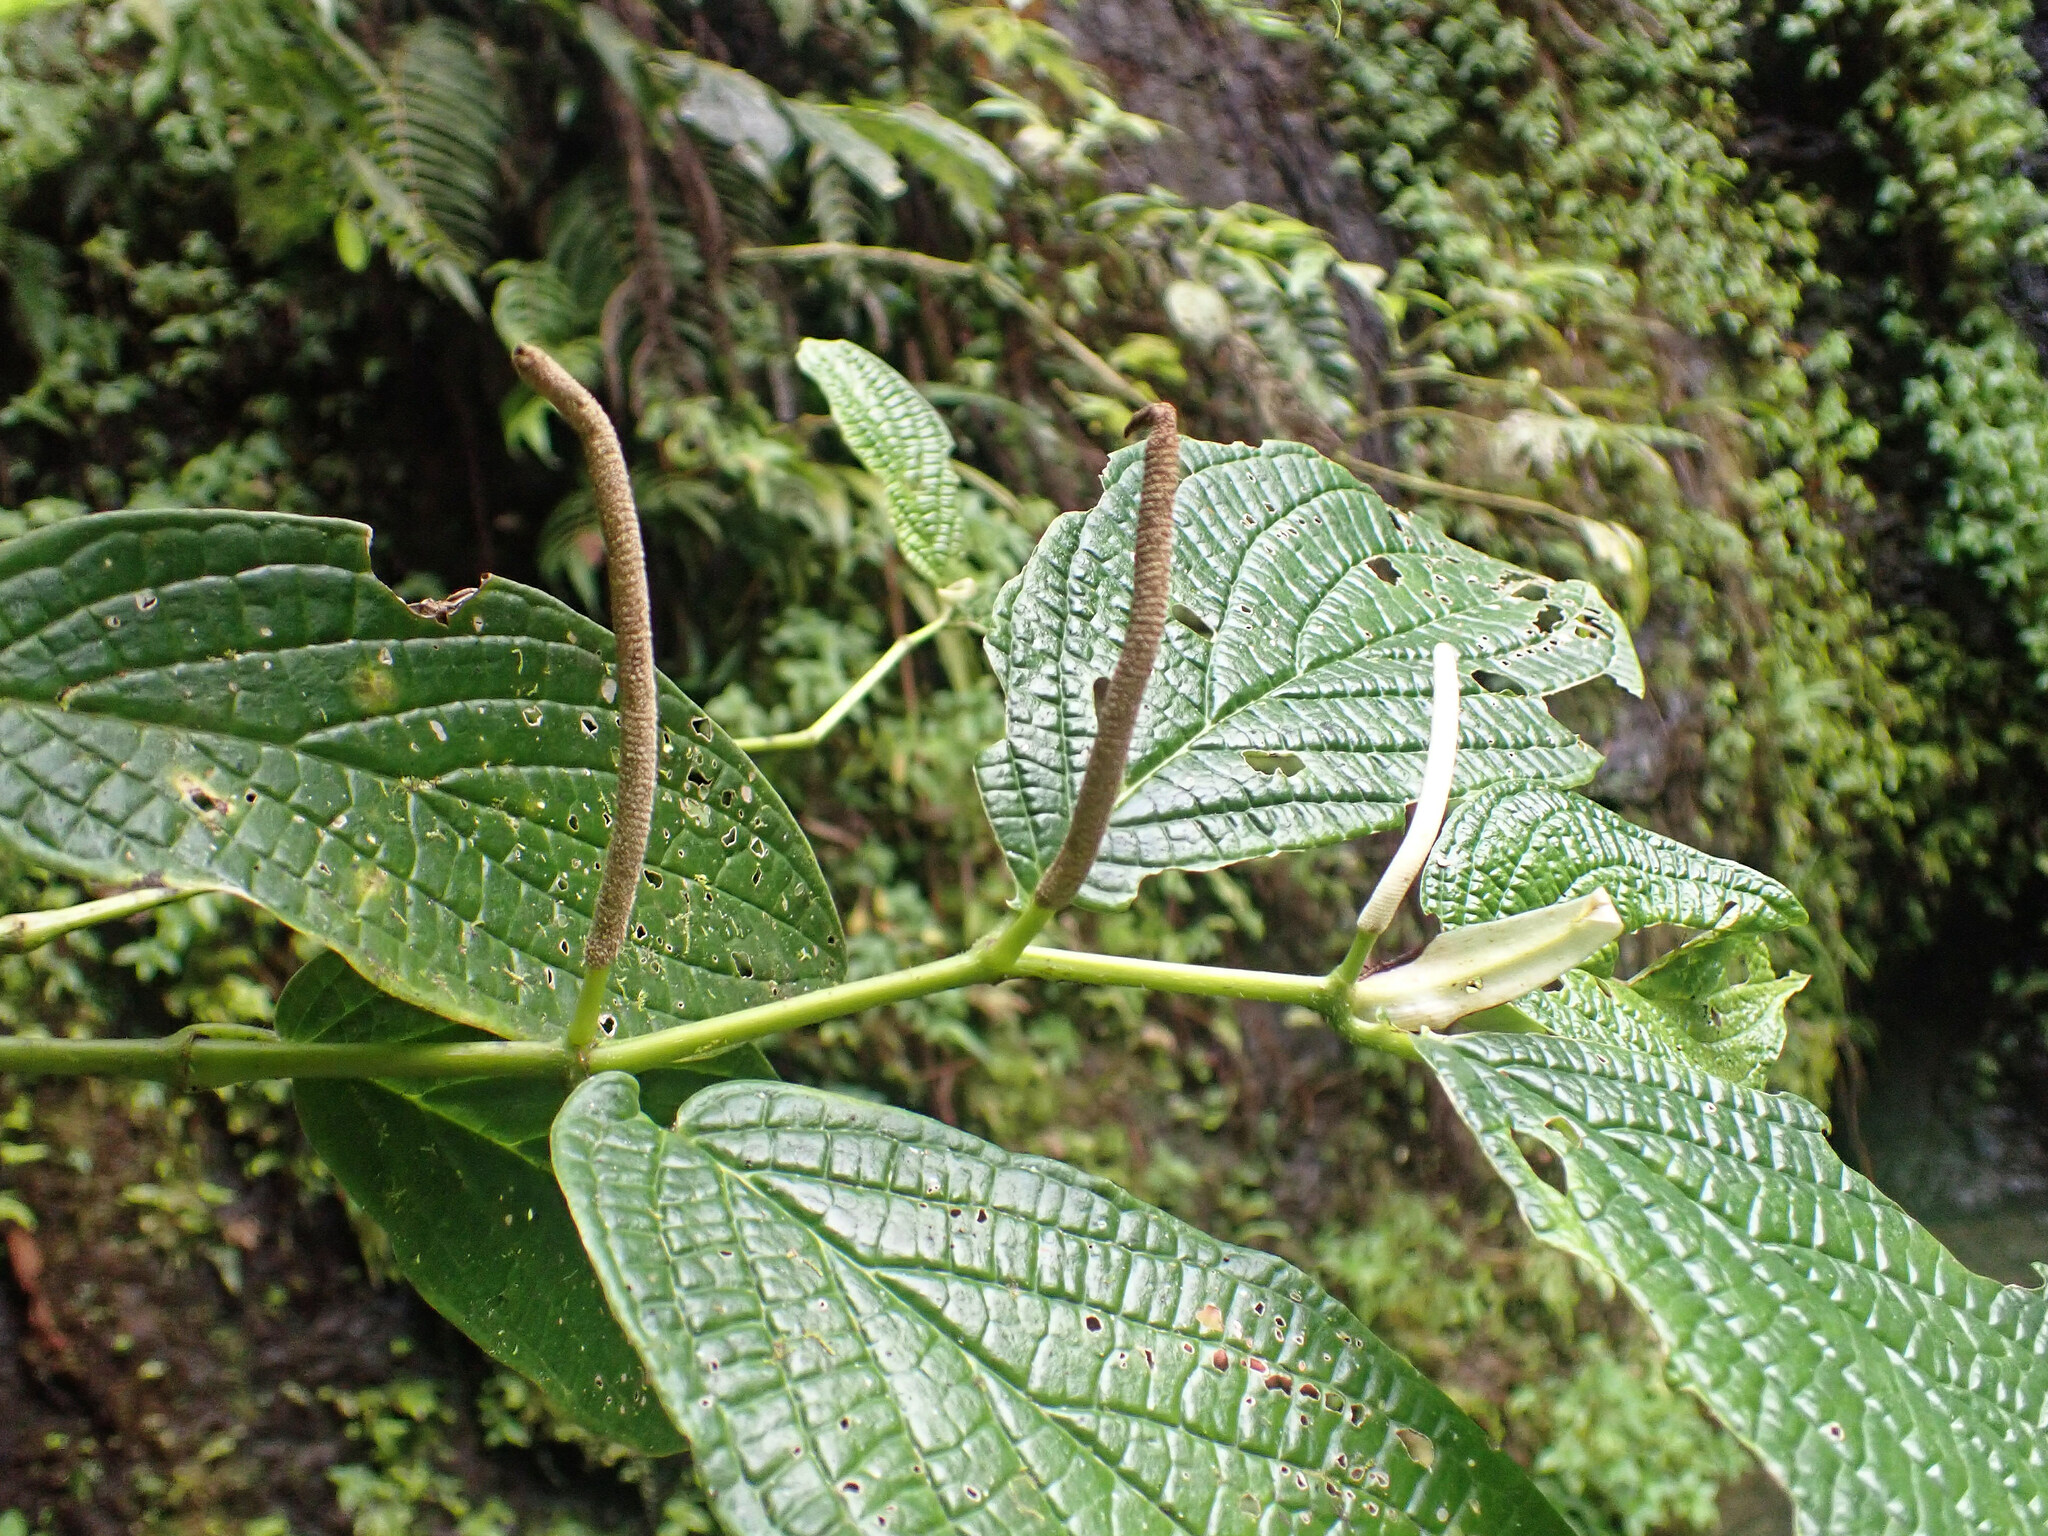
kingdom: Plantae
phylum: Tracheophyta
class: Magnoliopsida
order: Piperales
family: Piperaceae
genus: Piper
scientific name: Piper hispidum
